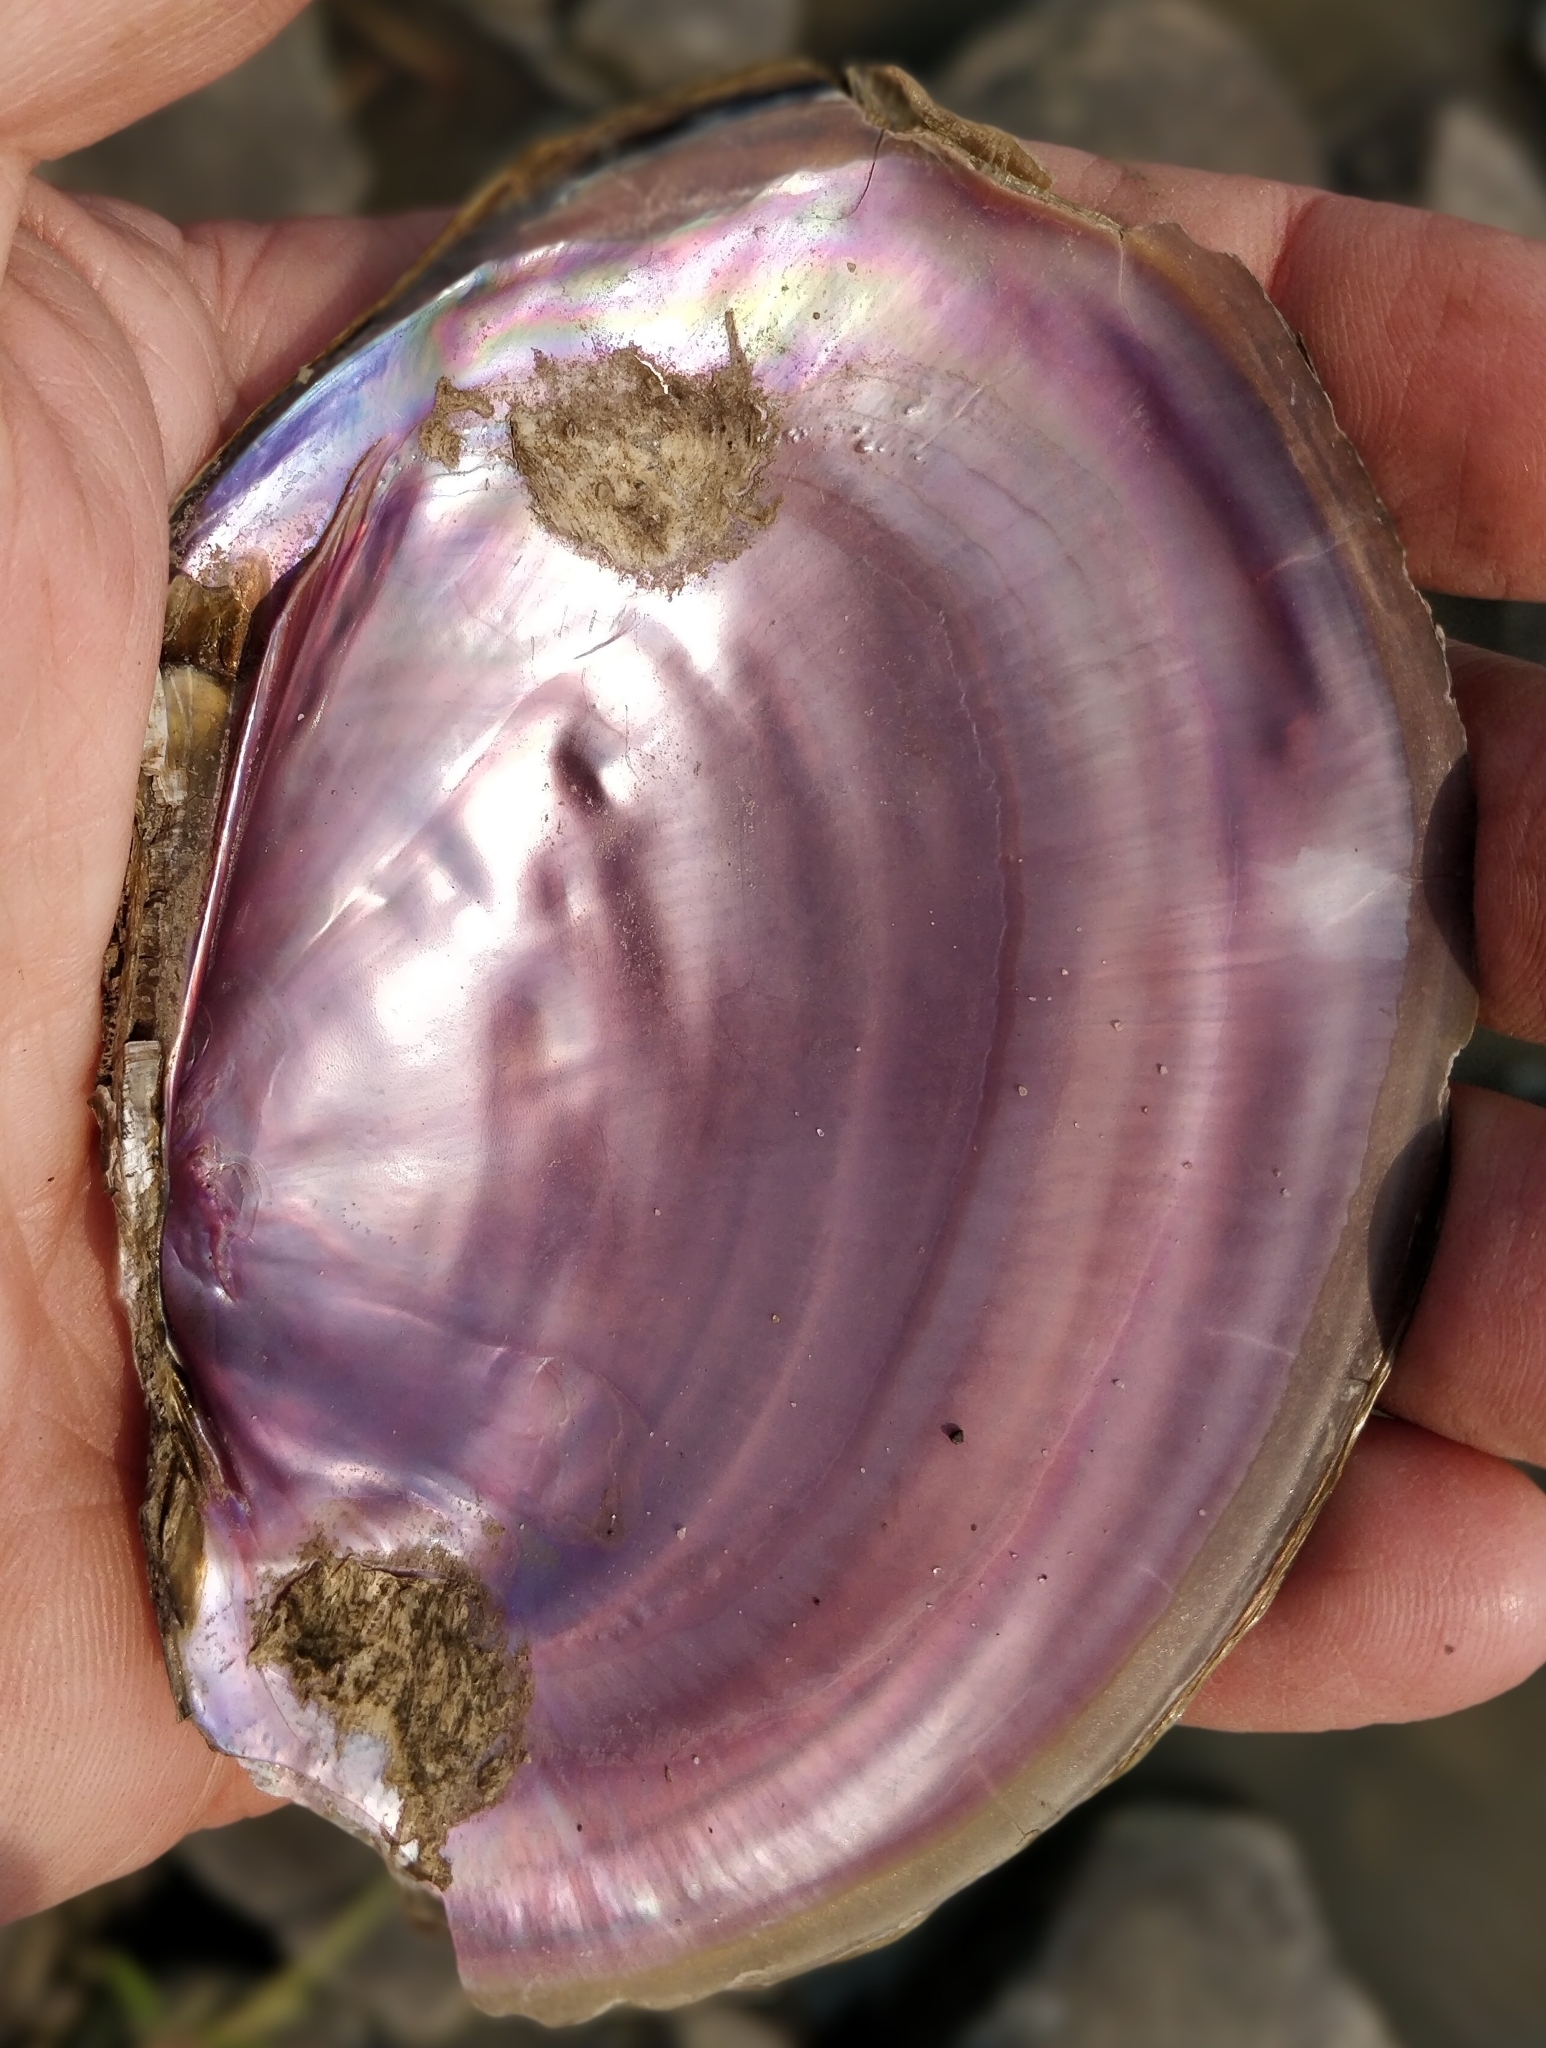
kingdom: Animalia
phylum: Mollusca
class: Bivalvia
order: Unionida
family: Unionidae
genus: Potamilus
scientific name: Potamilus ohiensis
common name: Pink papershell
